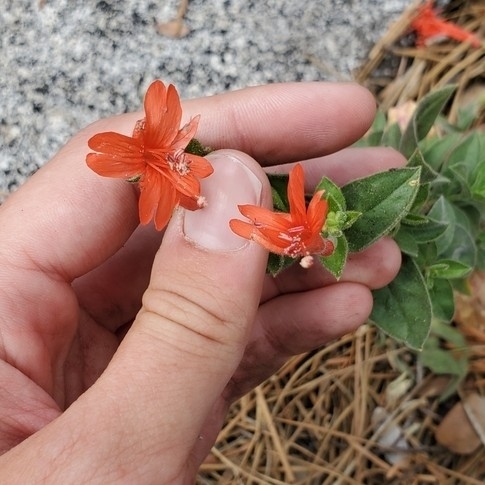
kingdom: Plantae
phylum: Tracheophyta
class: Magnoliopsida
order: Myrtales
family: Onagraceae
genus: Epilobium
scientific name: Epilobium canum
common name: California-fuchsia
